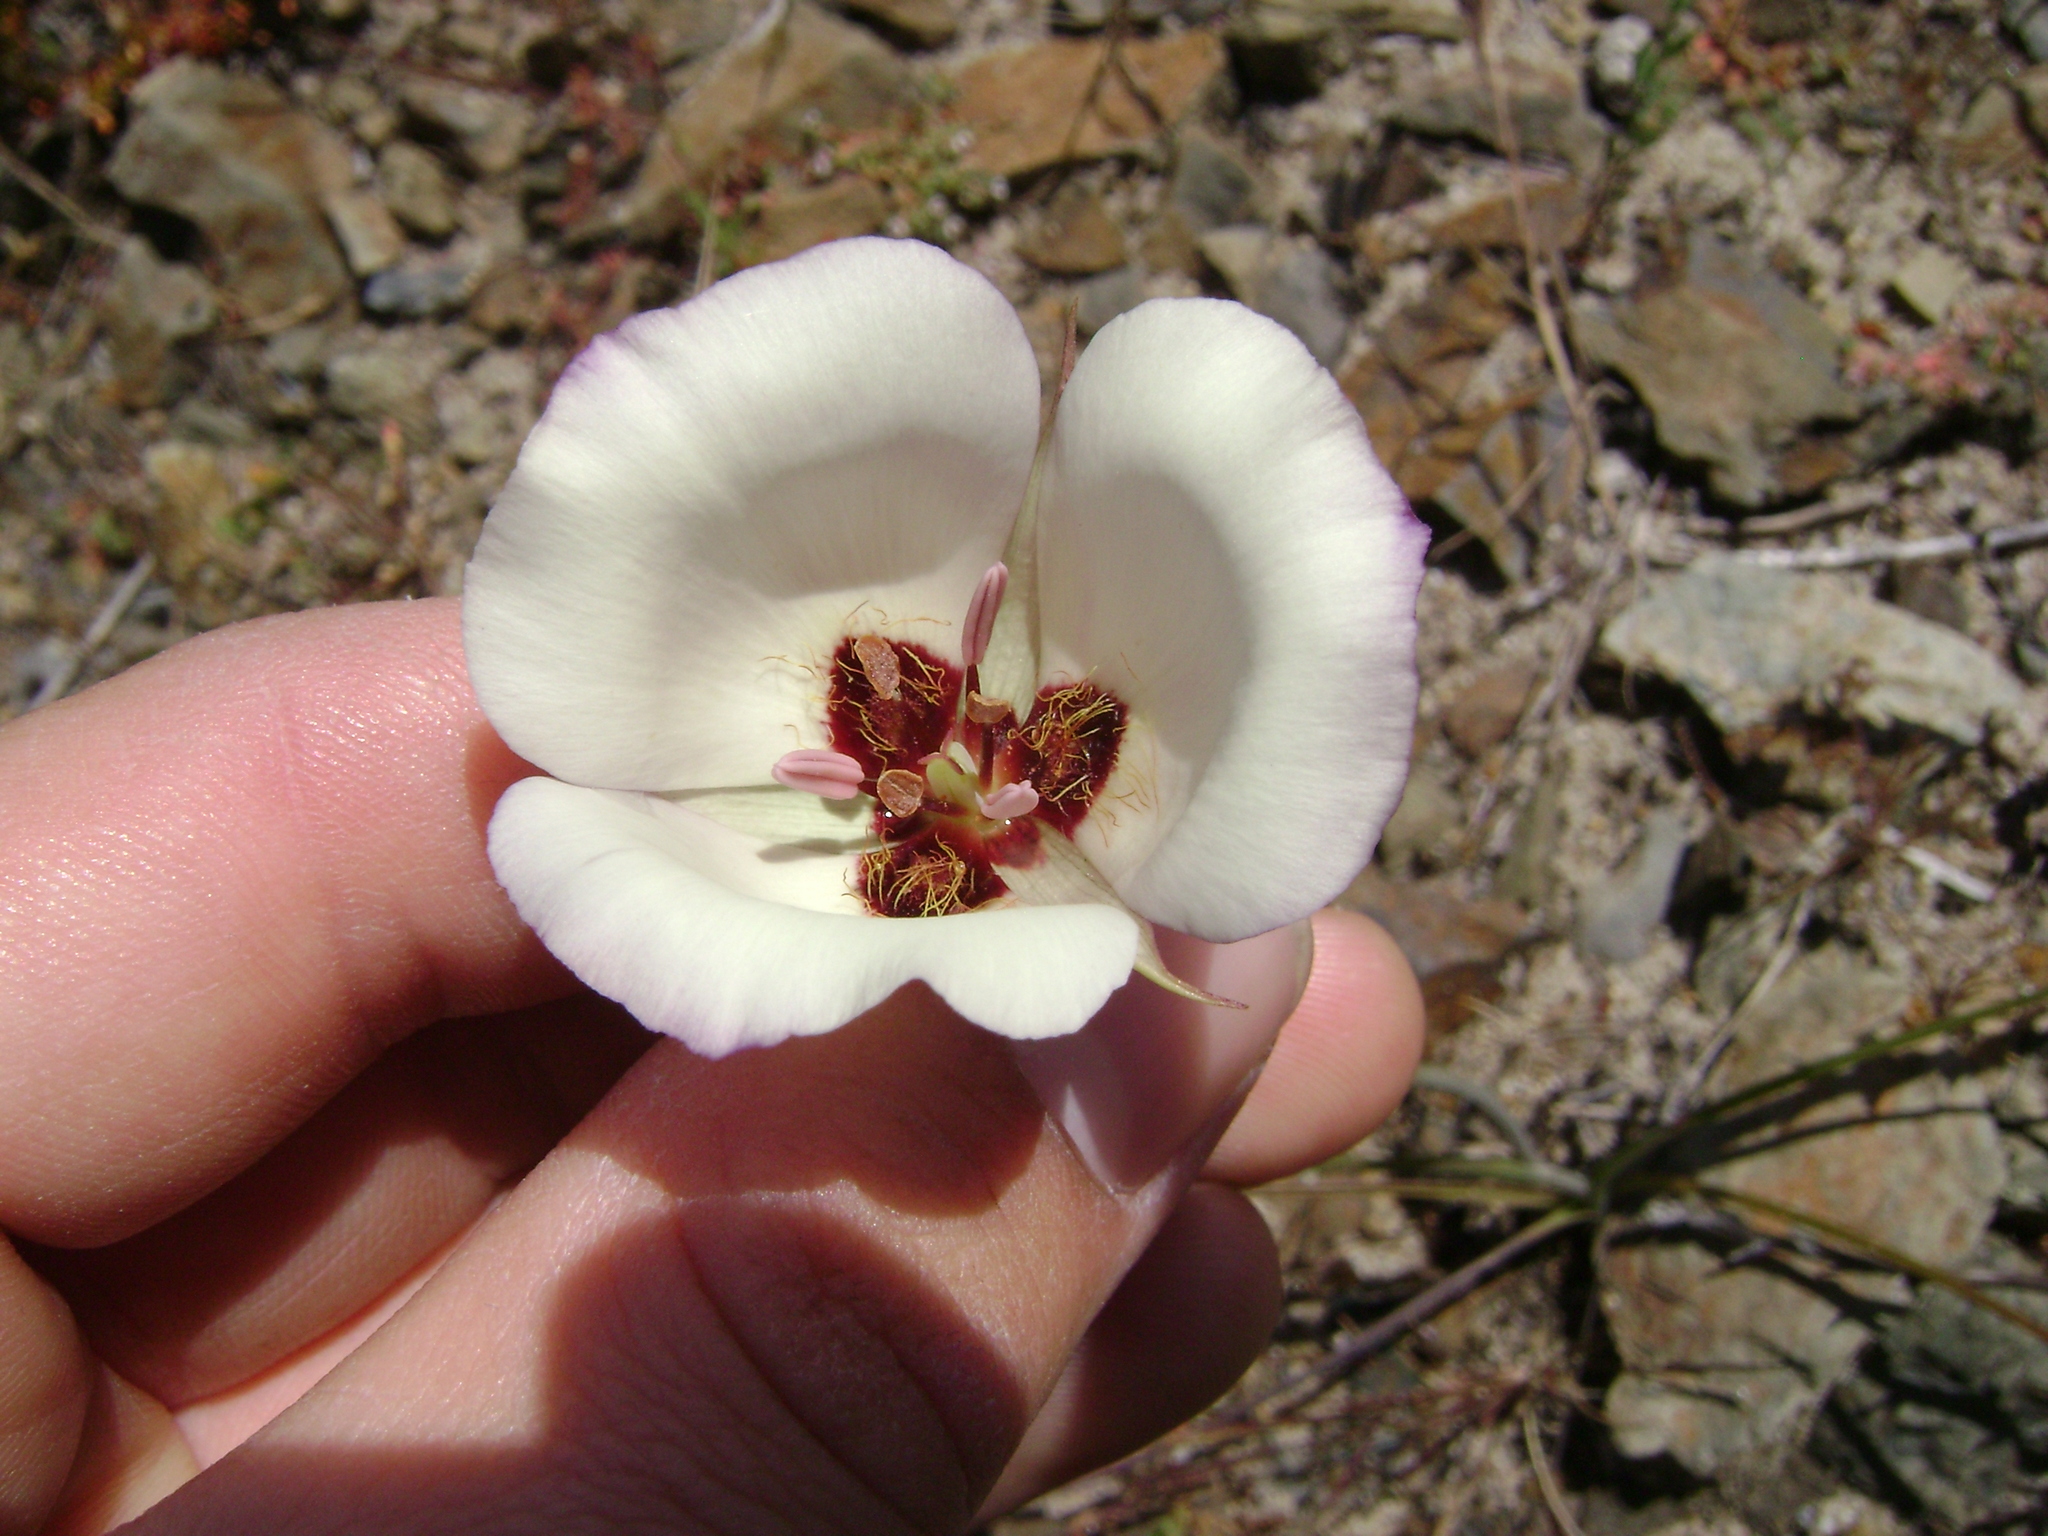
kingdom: Plantae
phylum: Tracheophyta
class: Liliopsida
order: Liliales
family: Liliaceae
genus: Calochortus
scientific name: Calochortus catalinae
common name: Catalina mariposa-lily
